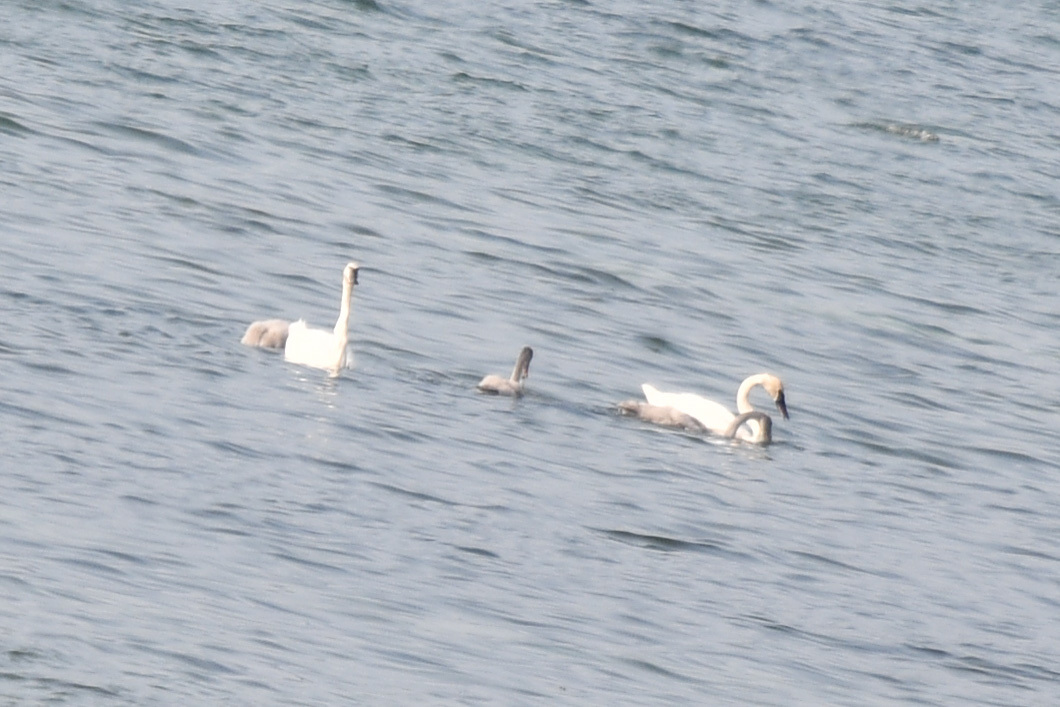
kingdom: Animalia
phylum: Chordata
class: Aves
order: Anseriformes
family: Anatidae
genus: Cygnus
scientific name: Cygnus buccinator
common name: Trumpeter swan
